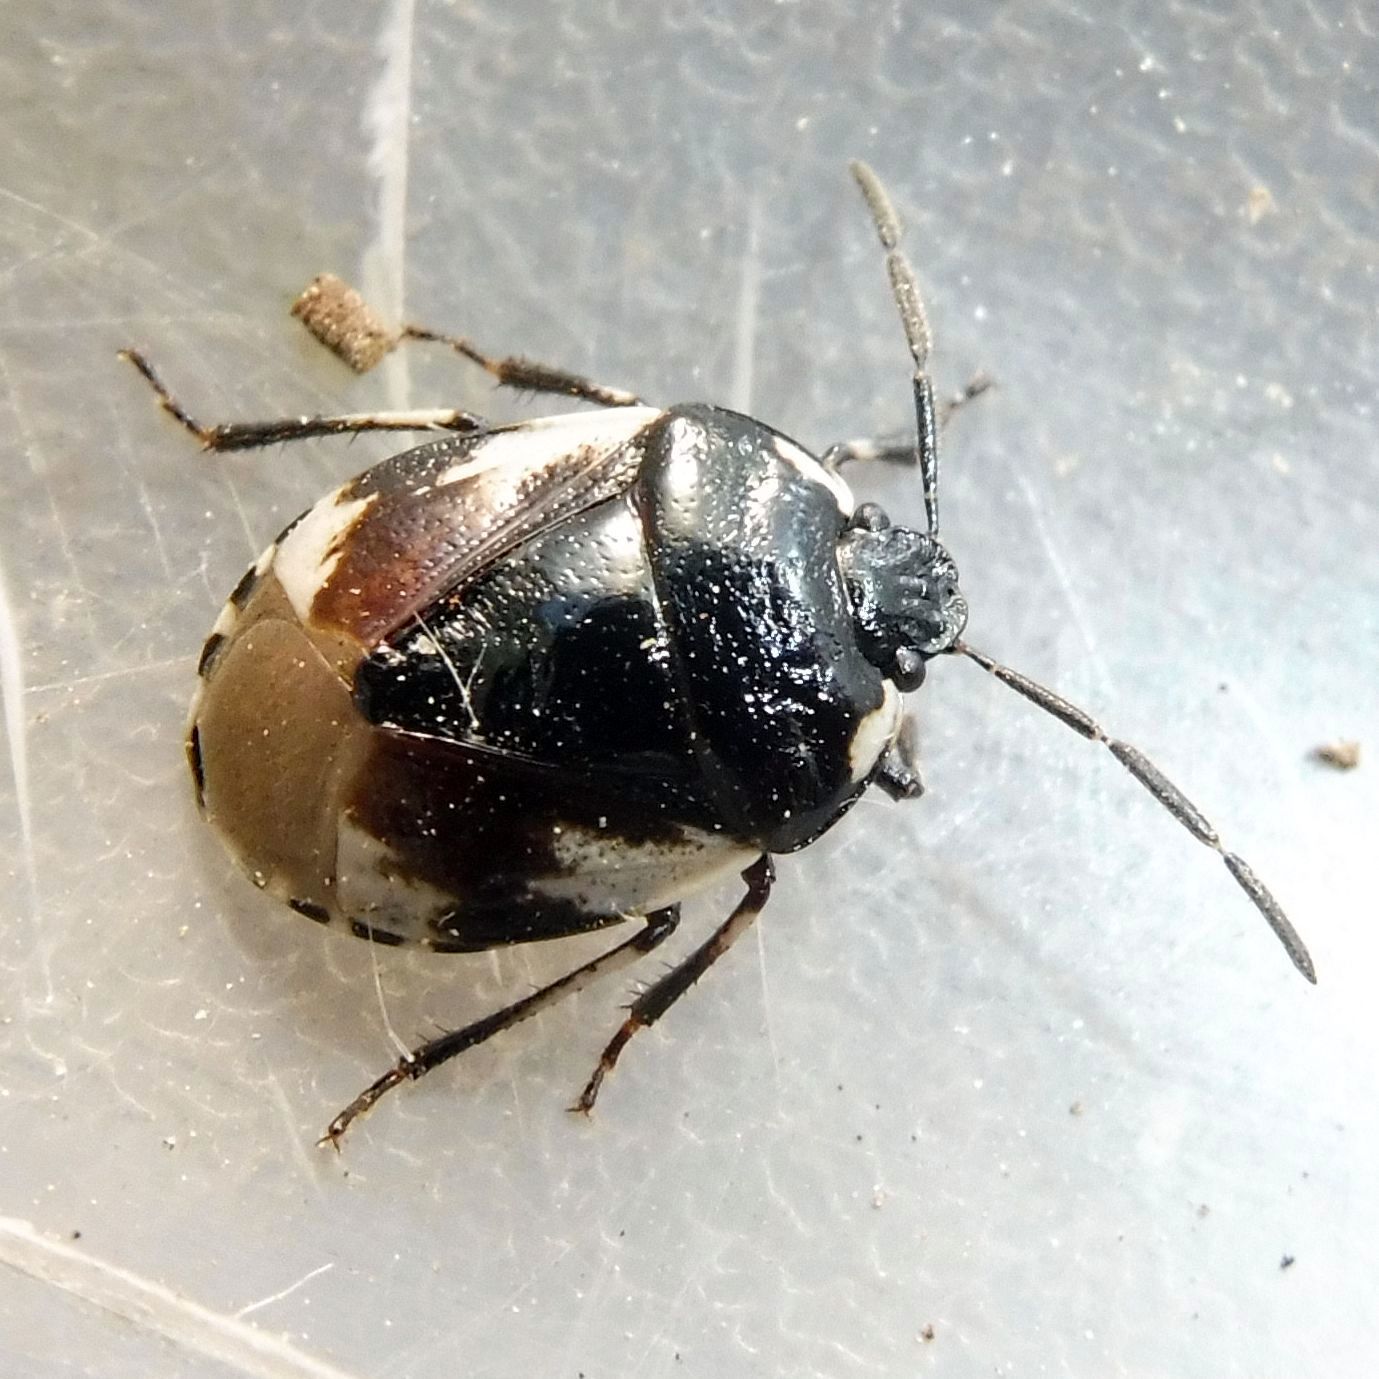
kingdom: Animalia
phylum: Arthropoda
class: Insecta
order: Hemiptera
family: Cydnidae
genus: Tritomegas
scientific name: Tritomegas bicolor
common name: Pied shieldbug
